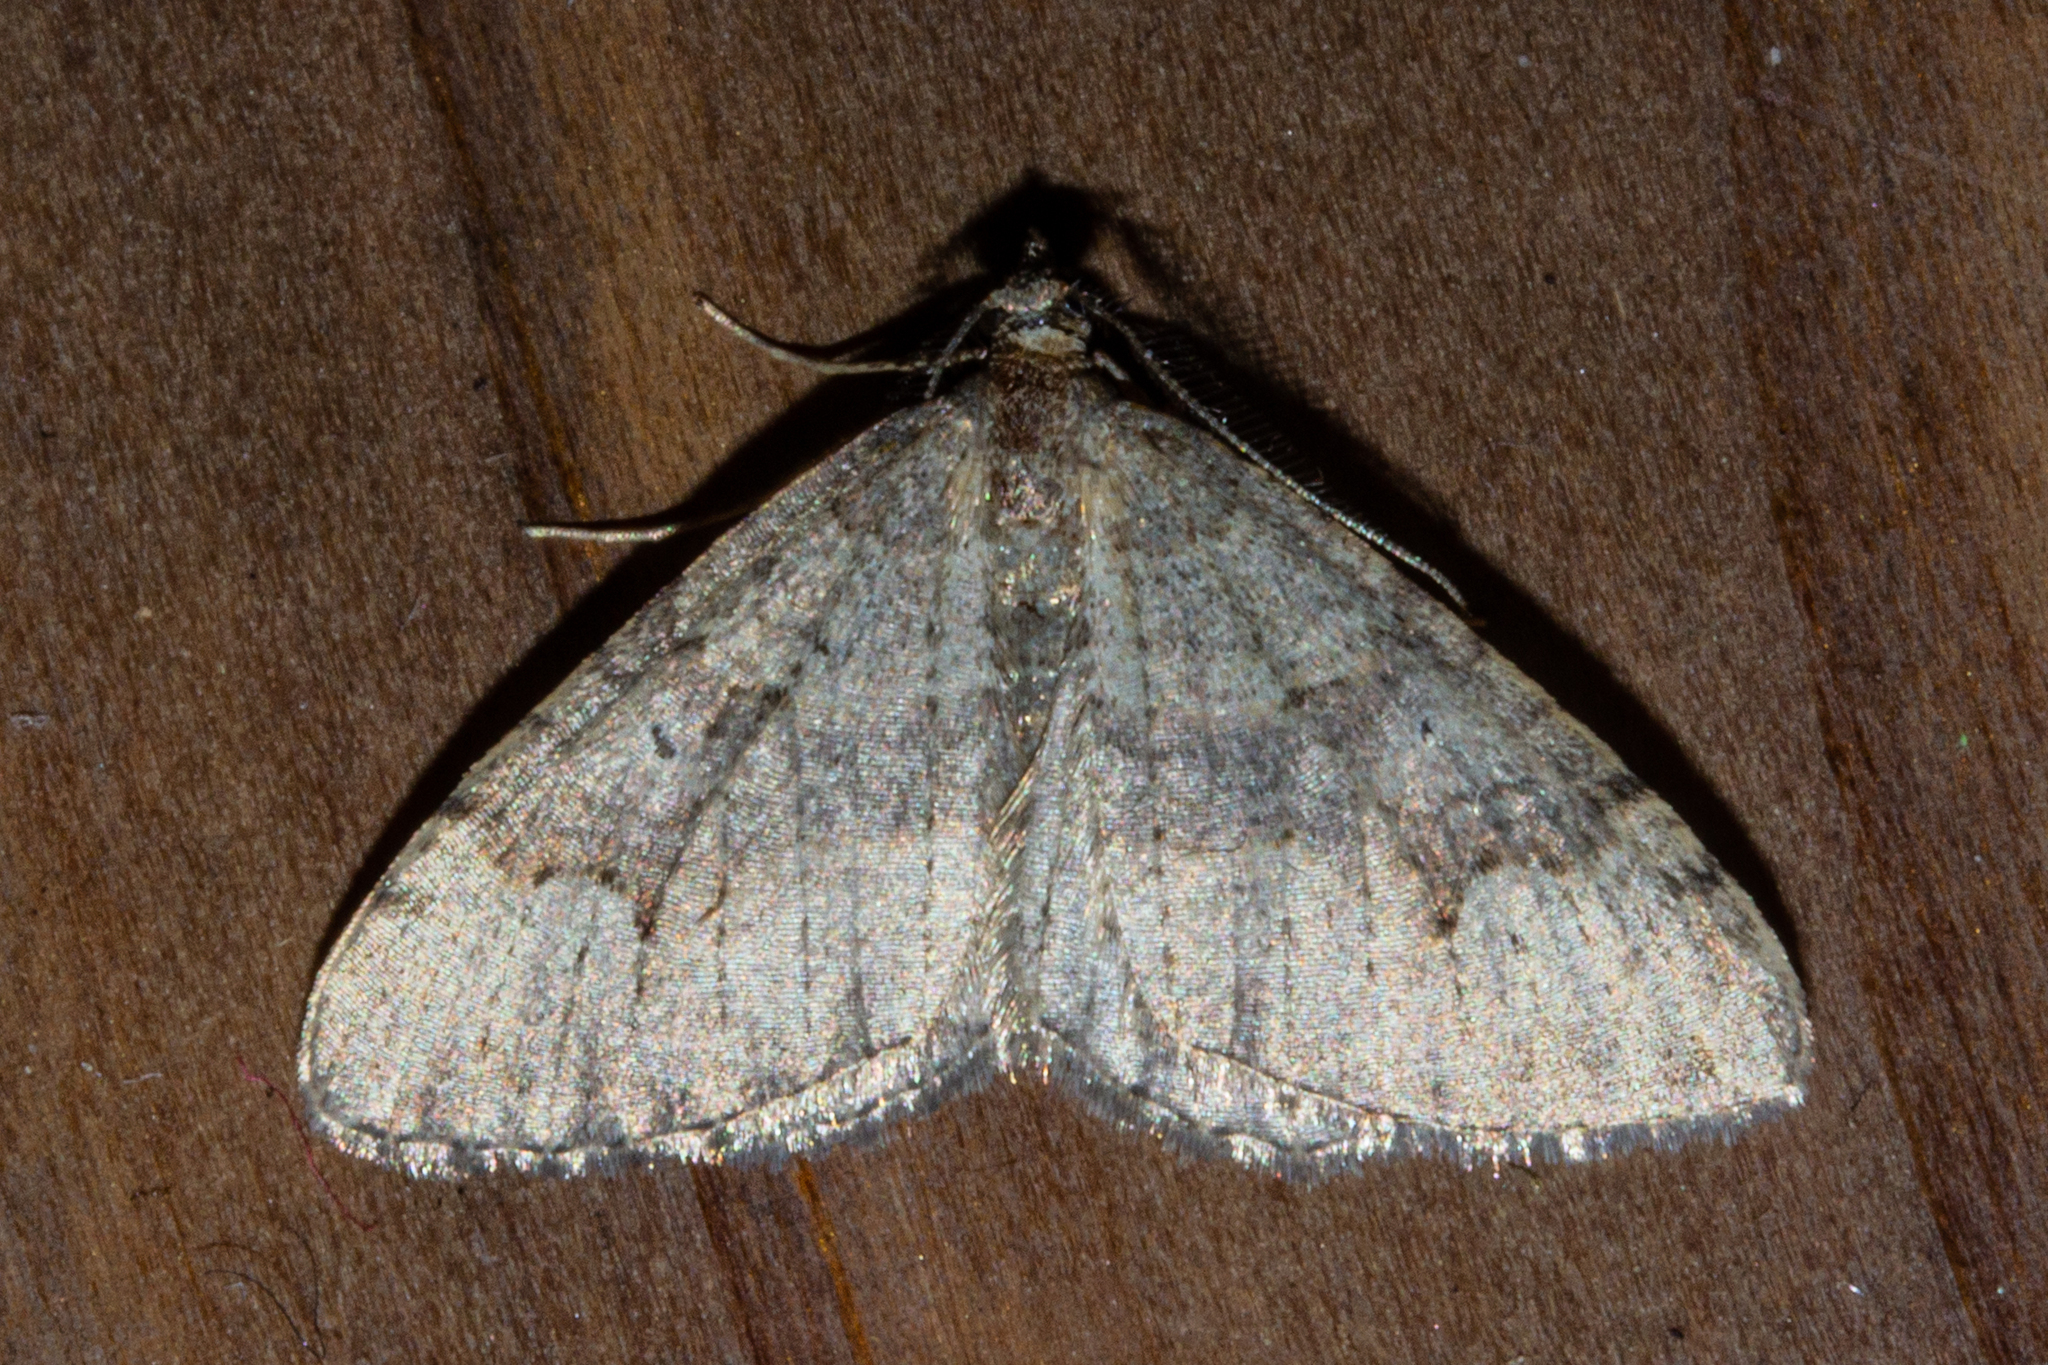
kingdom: Animalia
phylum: Arthropoda
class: Insecta
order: Lepidoptera
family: Geometridae
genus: Epyaxa
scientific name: Epyaxa rosearia
